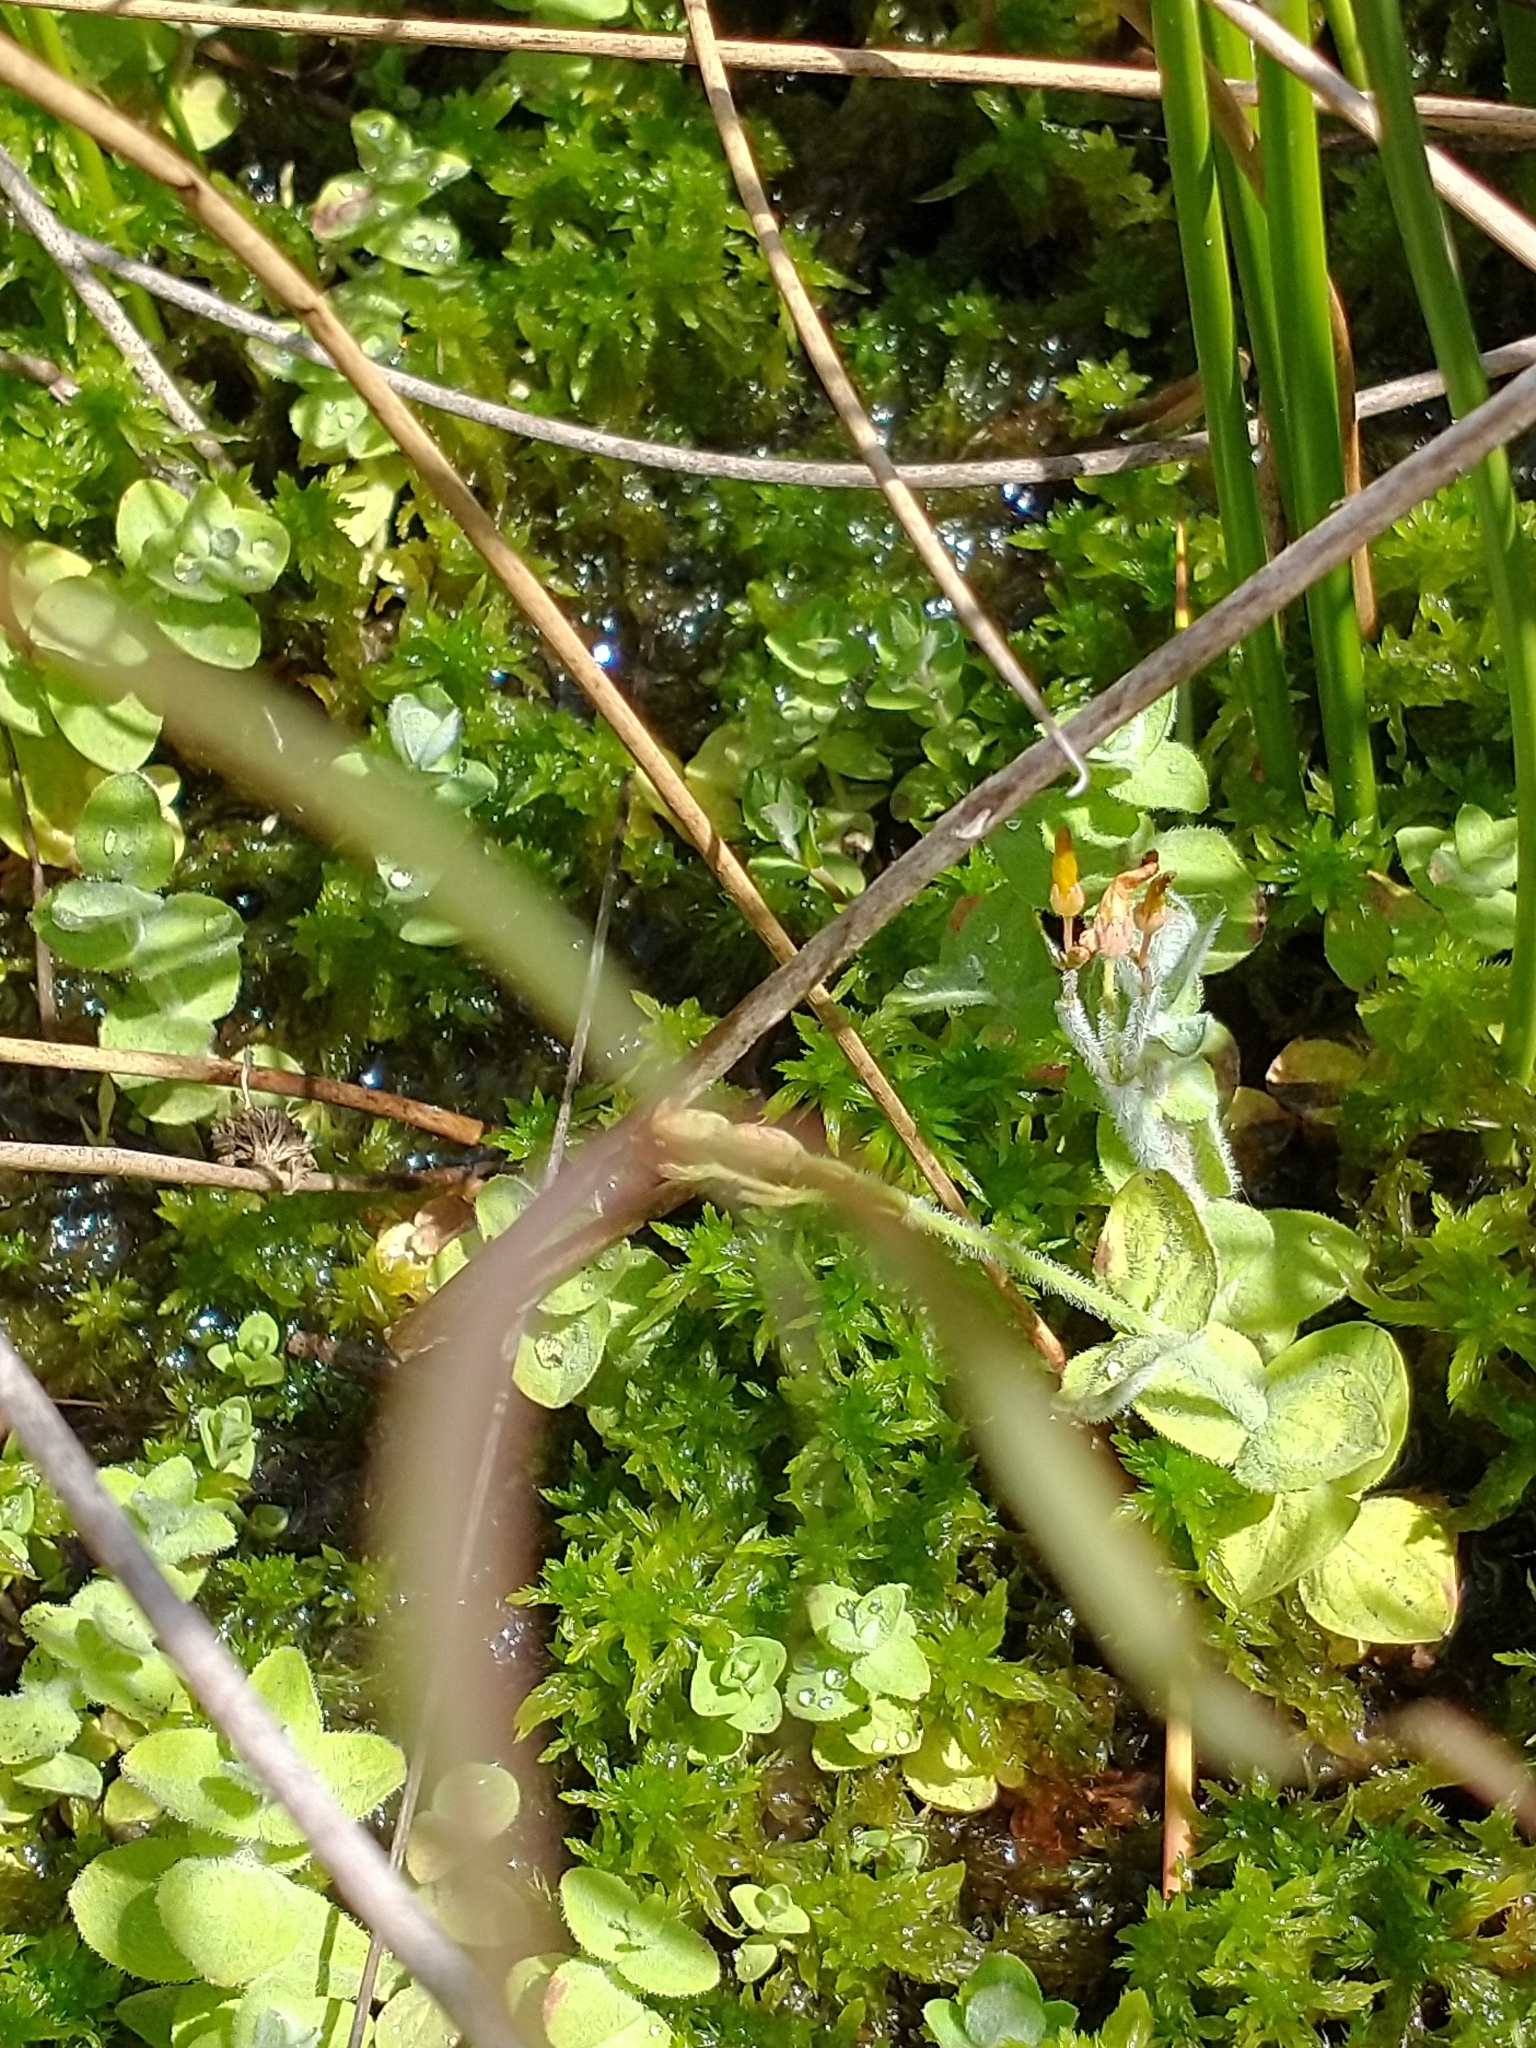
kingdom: Plantae
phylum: Tracheophyta
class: Magnoliopsida
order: Malpighiales
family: Hypericaceae
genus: Hypericum
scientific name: Hypericum elodes
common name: Marsh st. john's-wort
